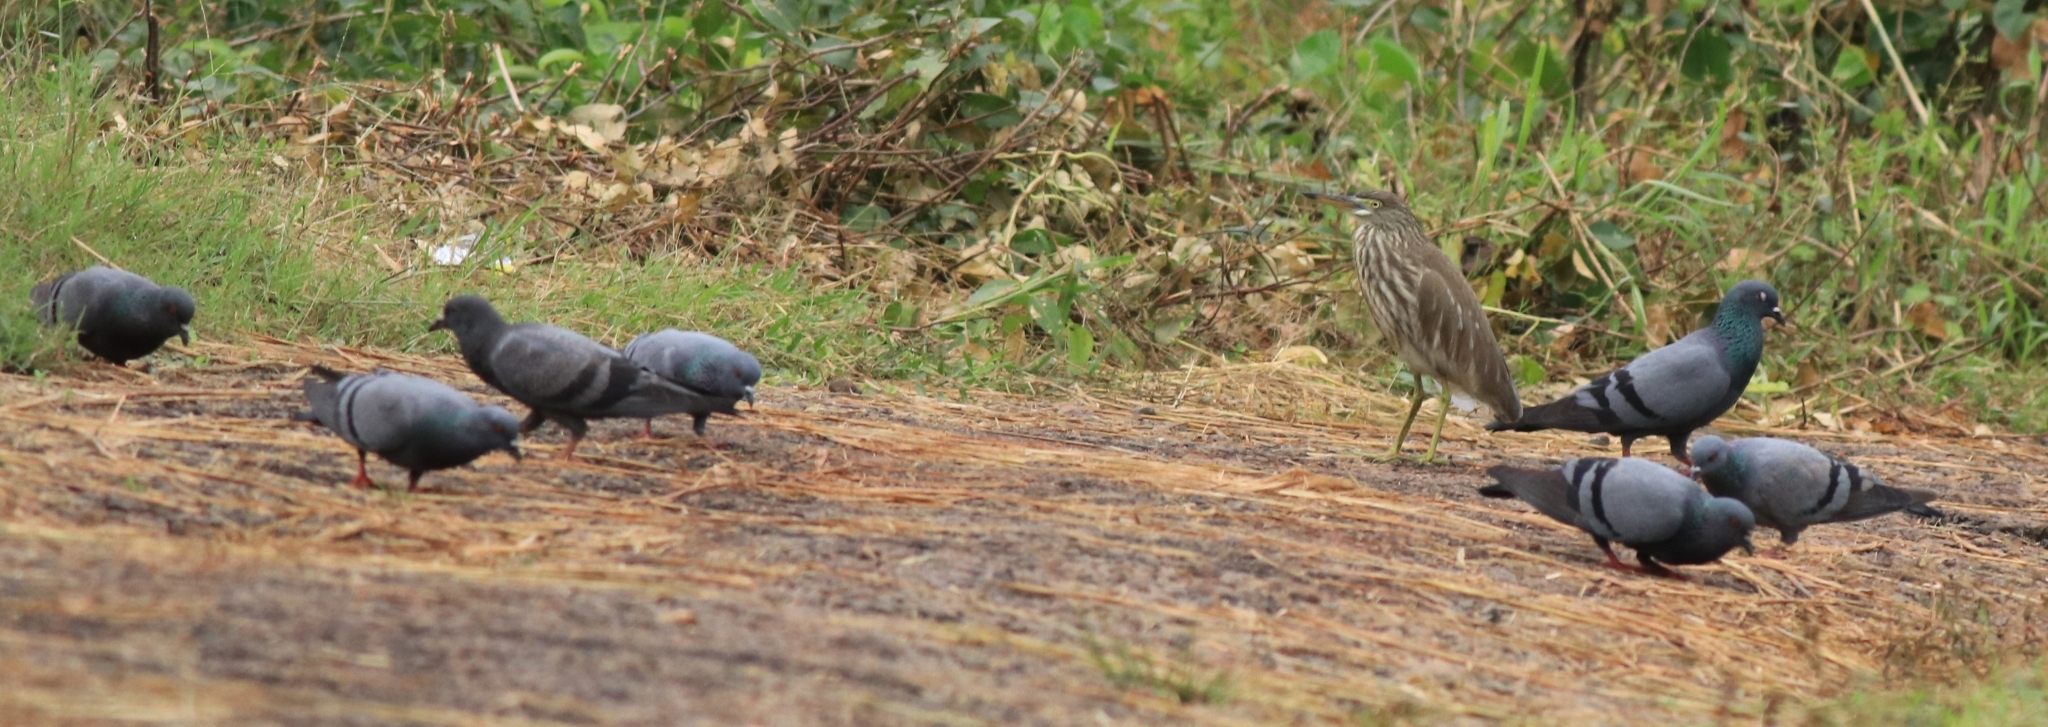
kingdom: Animalia
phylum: Chordata
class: Aves
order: Columbiformes
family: Columbidae
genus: Columba
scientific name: Columba livia
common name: Rock pigeon
